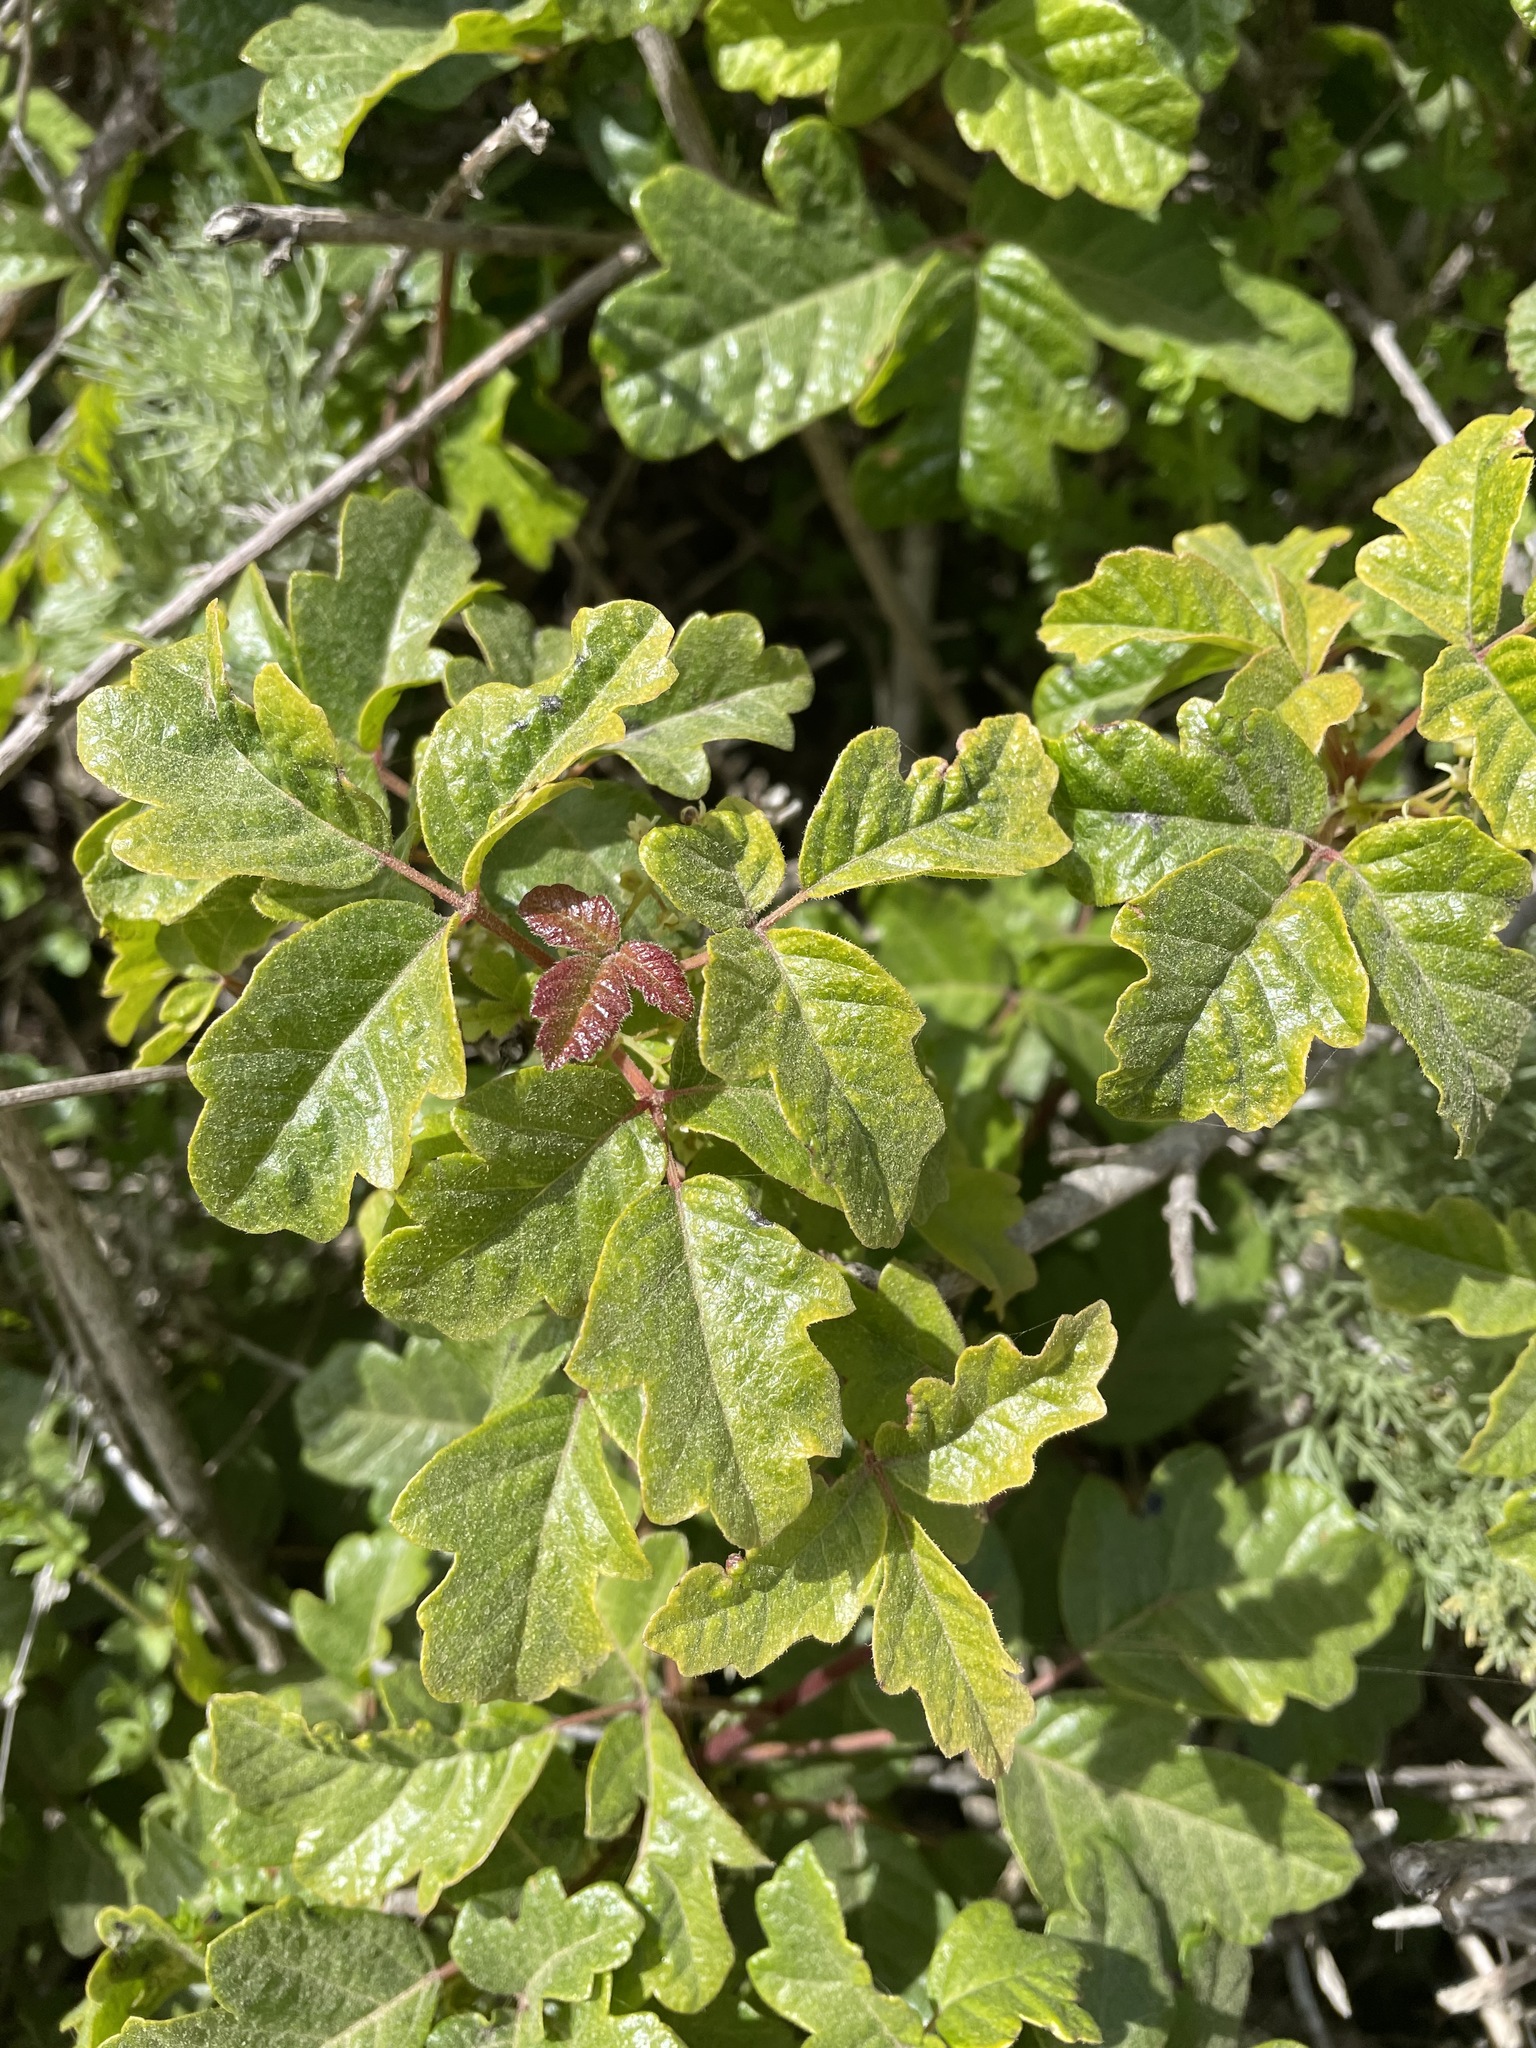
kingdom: Plantae
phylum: Tracheophyta
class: Magnoliopsida
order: Sapindales
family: Anacardiaceae
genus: Toxicodendron
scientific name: Toxicodendron diversilobum
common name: Pacific poison-oak
